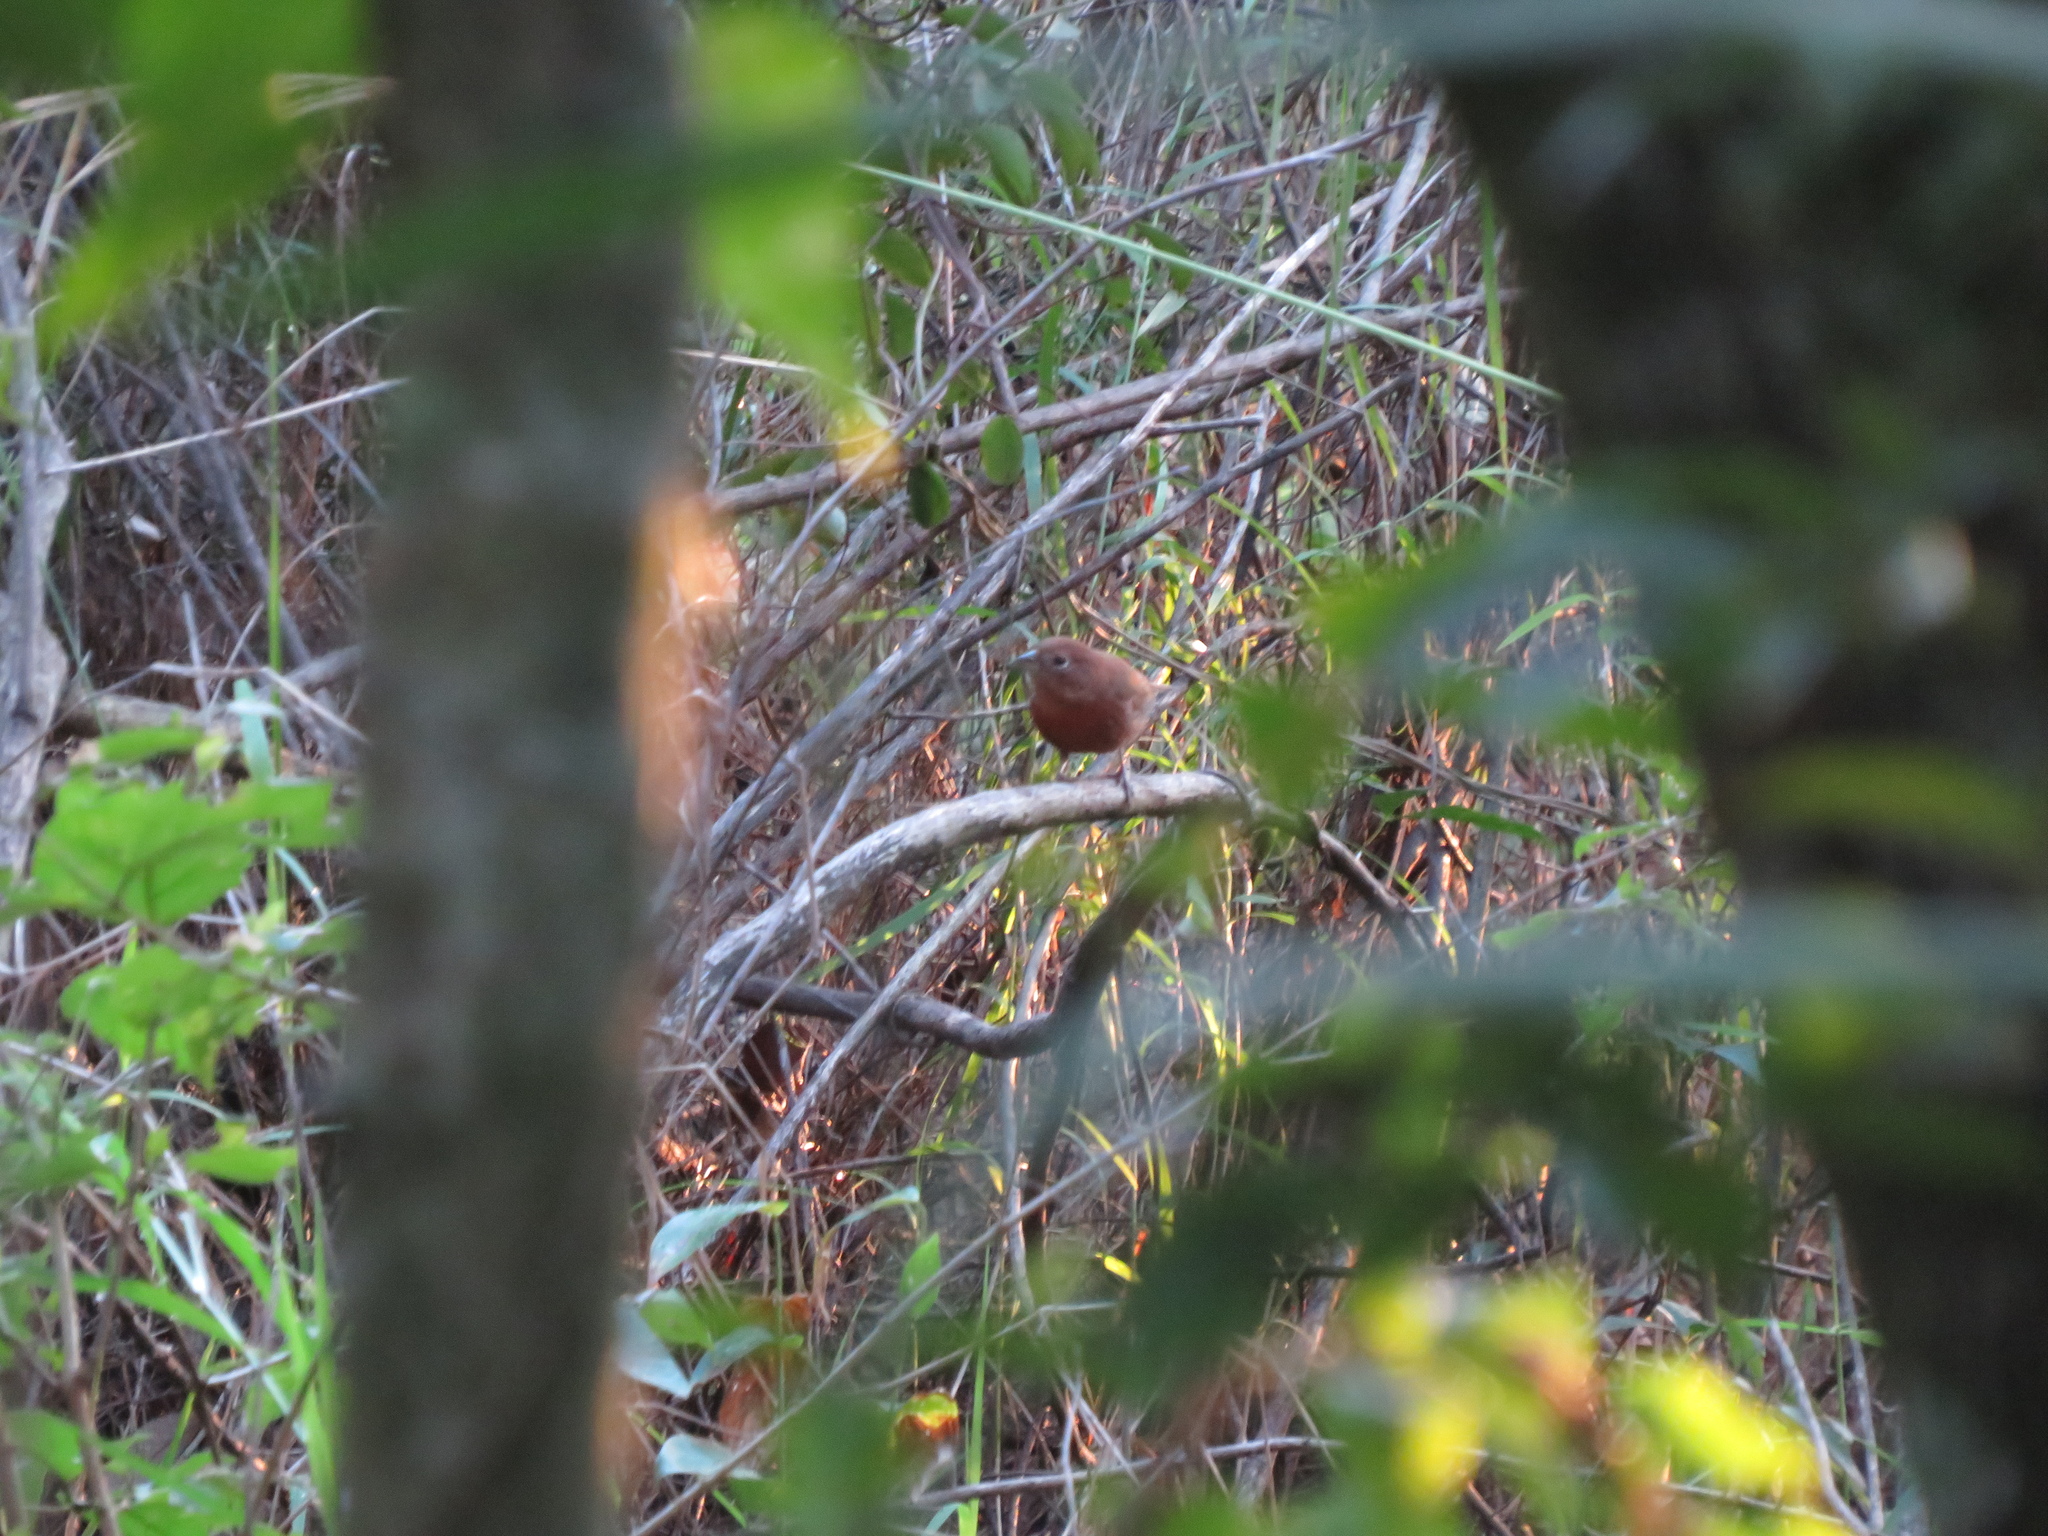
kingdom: Animalia
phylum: Chordata
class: Aves
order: Passeriformes
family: Thraupidae
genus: Coryphospingus
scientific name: Coryphospingus cucullatus
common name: Red pileated finch
